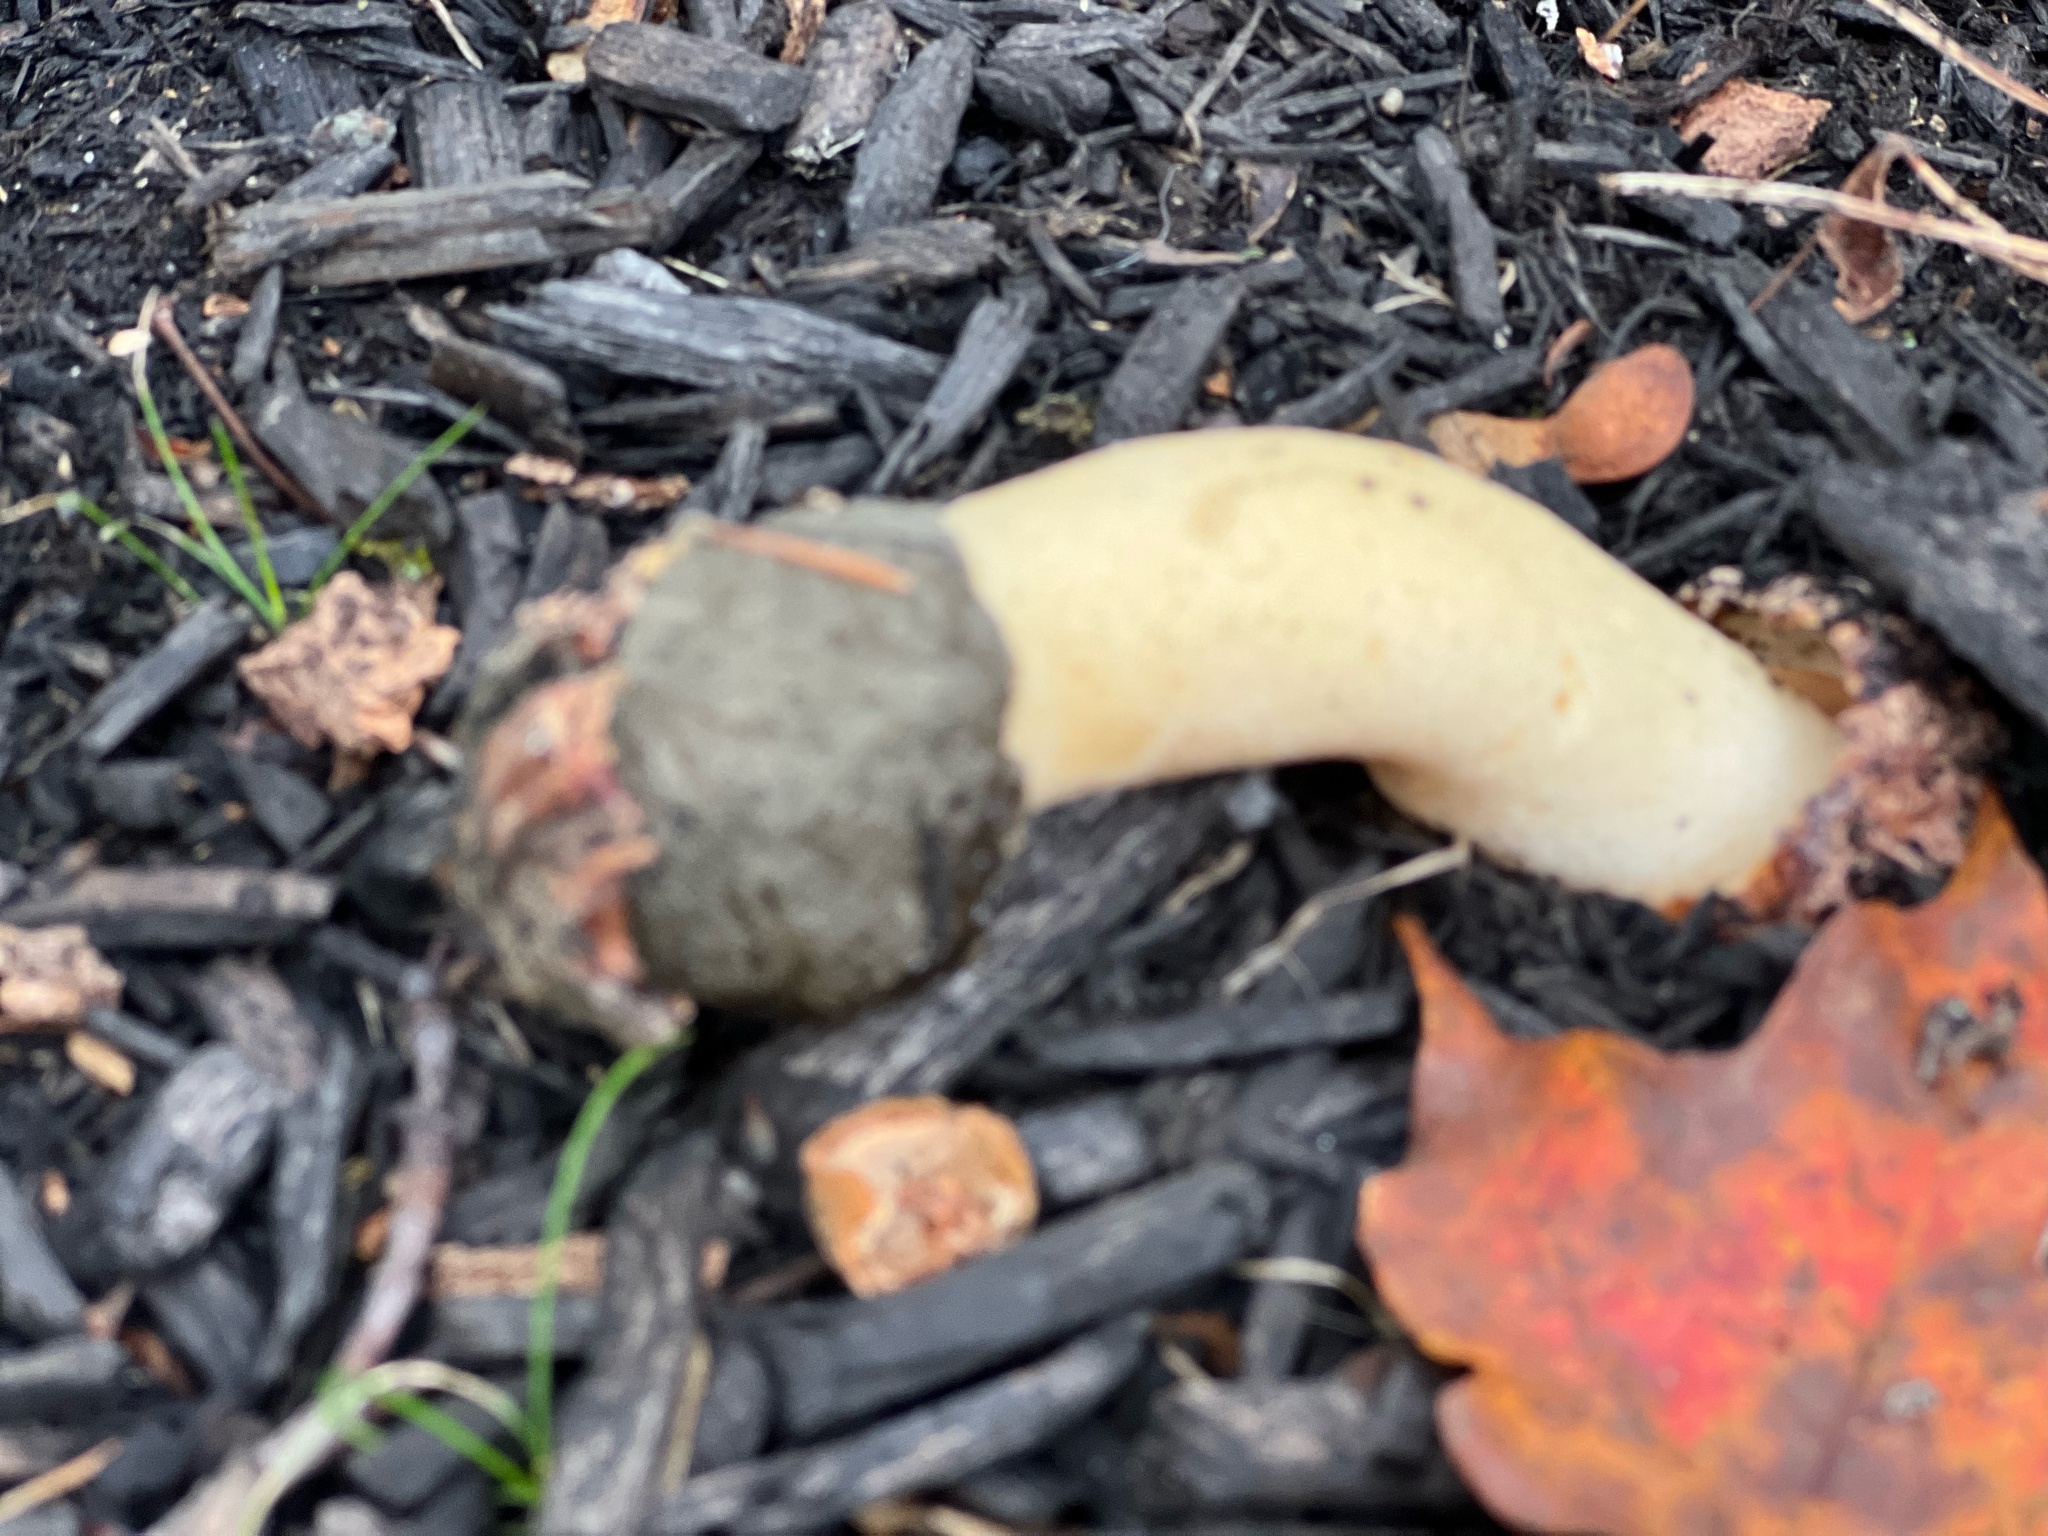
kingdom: Fungi
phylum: Basidiomycota
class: Agaricomycetes
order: Phallales
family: Phallaceae
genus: Phallus
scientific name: Phallus ravenelii
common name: Ravenel's stinkhorn
